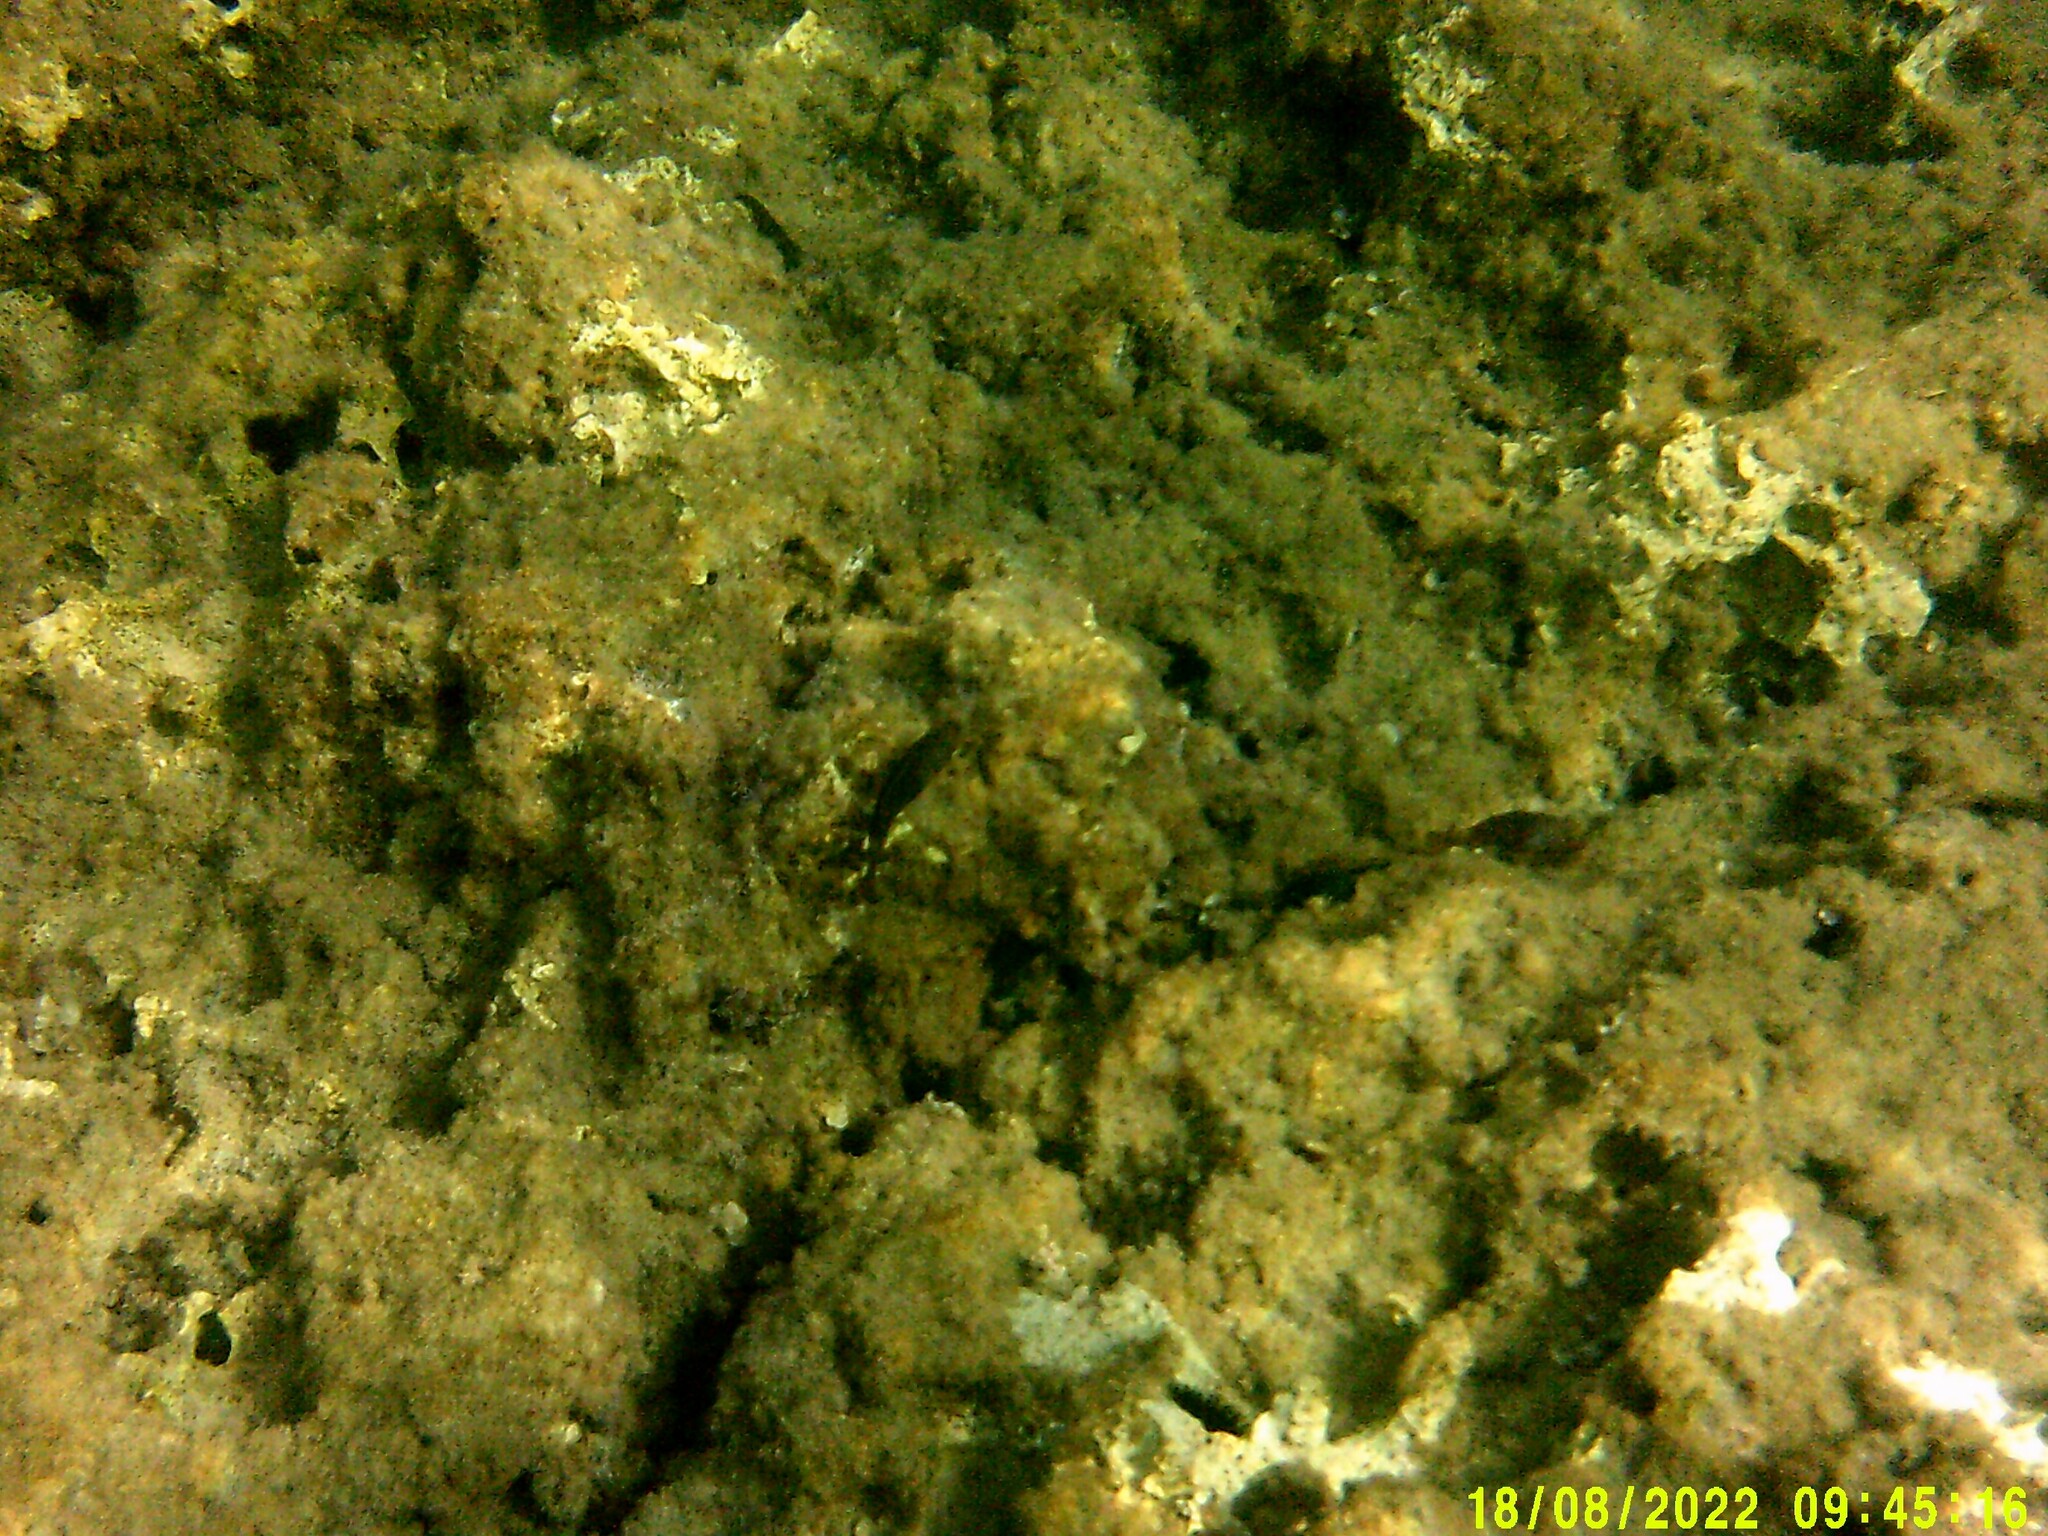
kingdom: Animalia
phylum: Chordata
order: Perciformes
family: Scaridae
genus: Sparisoma
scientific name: Sparisoma cretense
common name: Parrotfish
